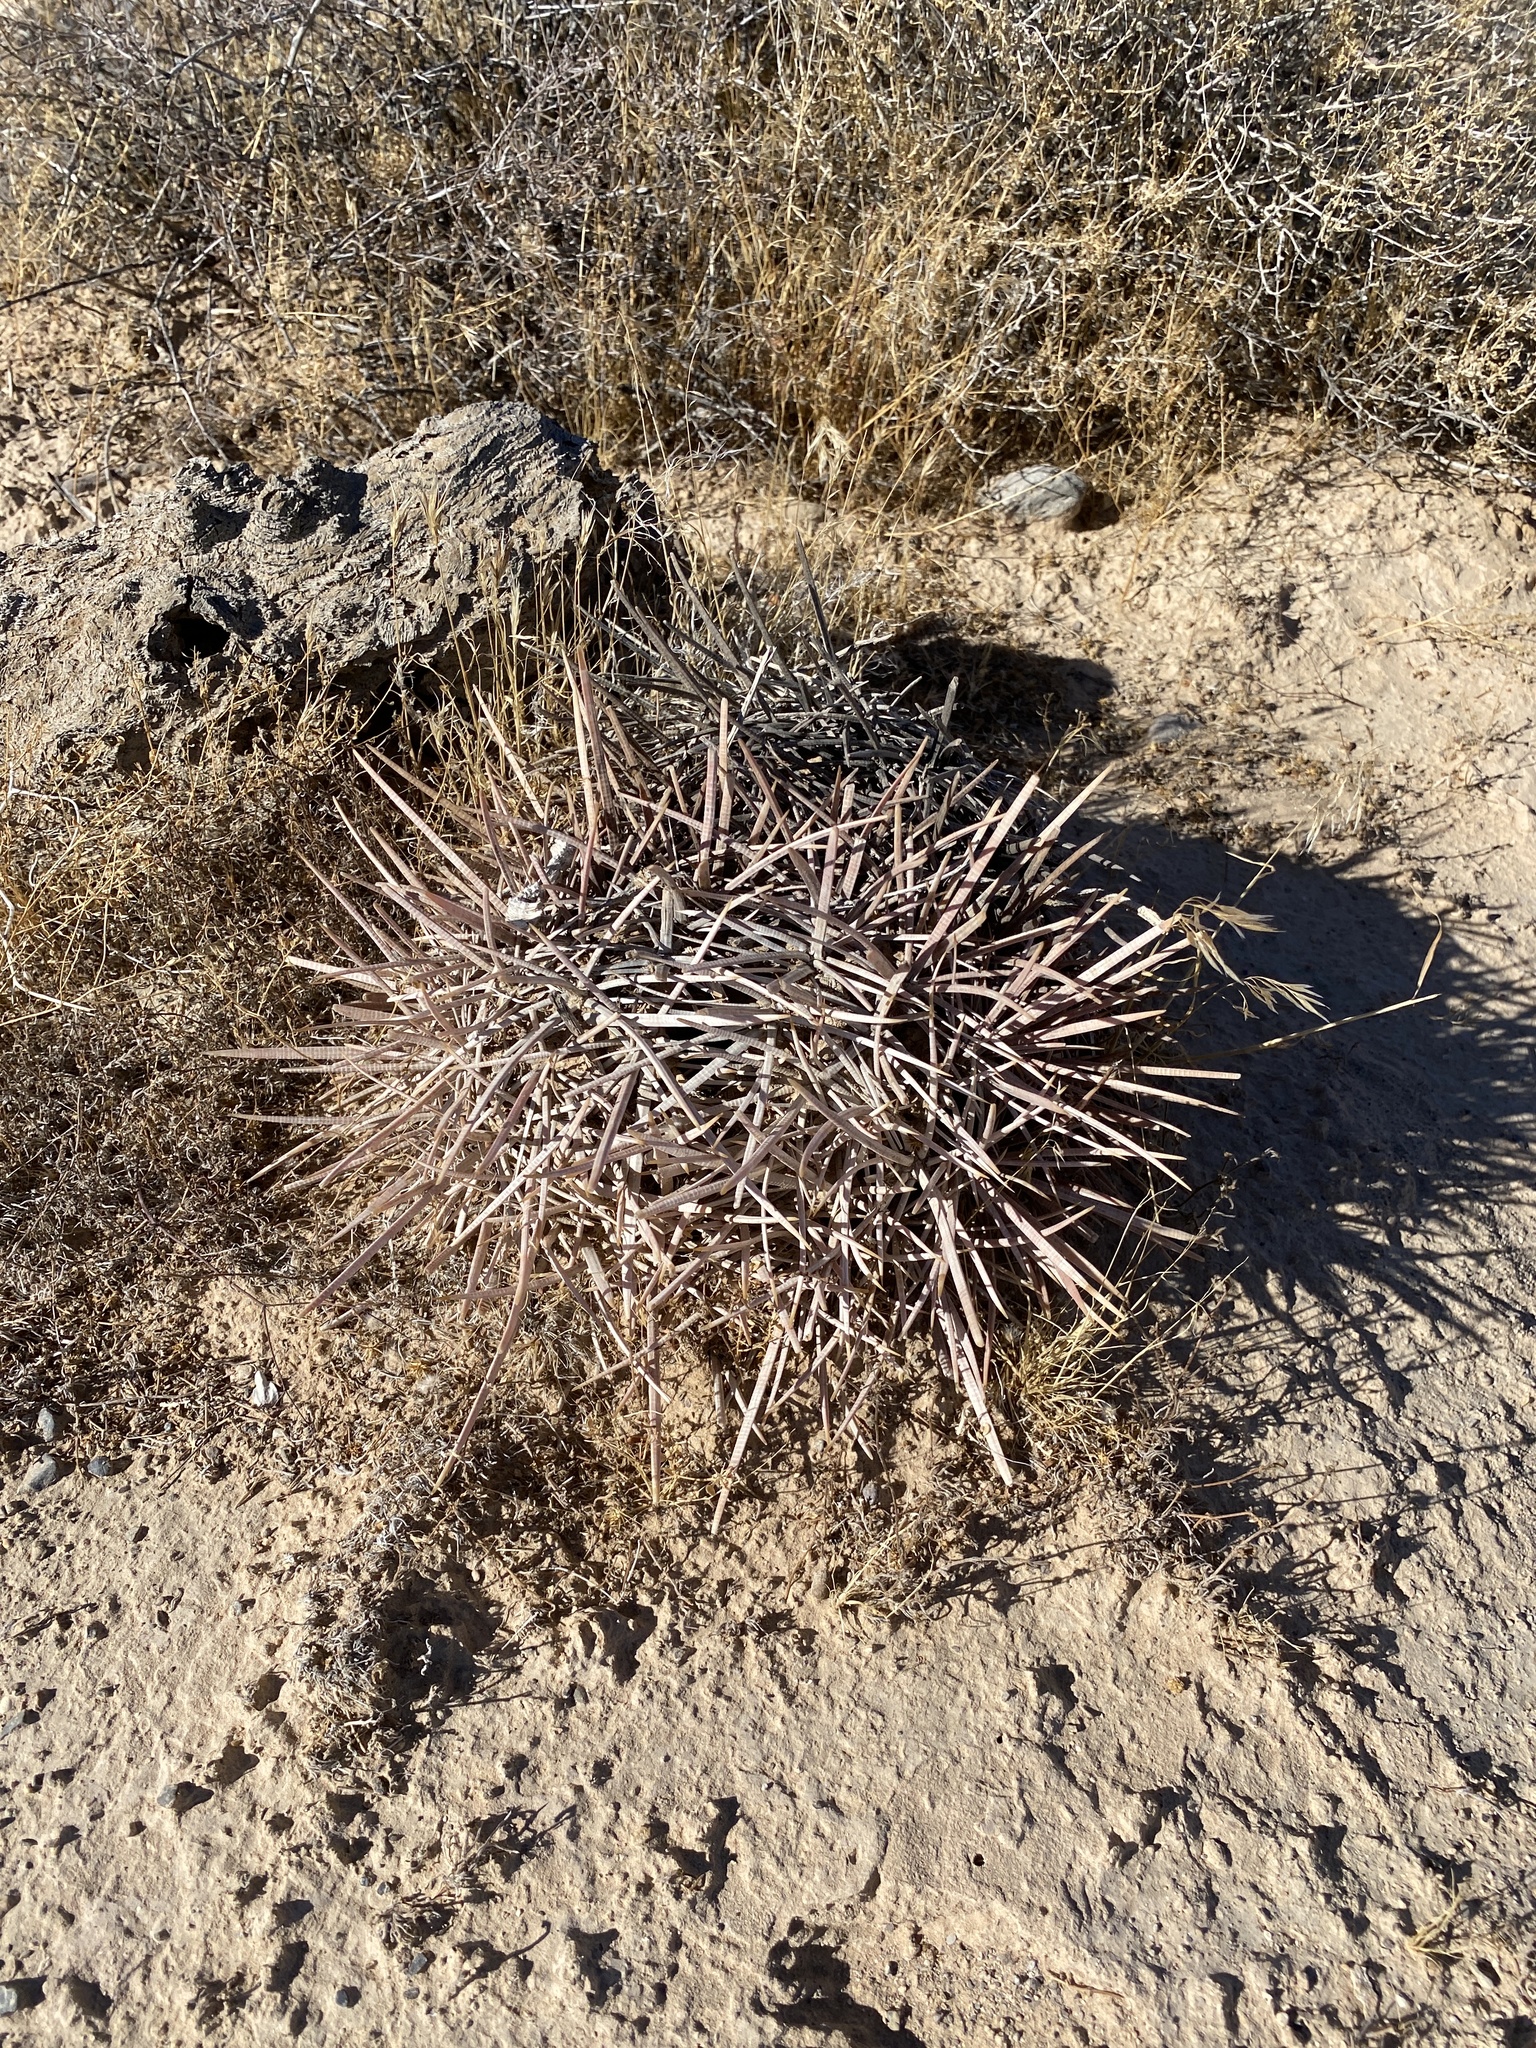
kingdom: Plantae
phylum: Tracheophyta
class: Magnoliopsida
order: Caryophyllales
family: Cactaceae
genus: Ferocactus
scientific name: Ferocactus cylindraceus
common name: California barrel cactus
